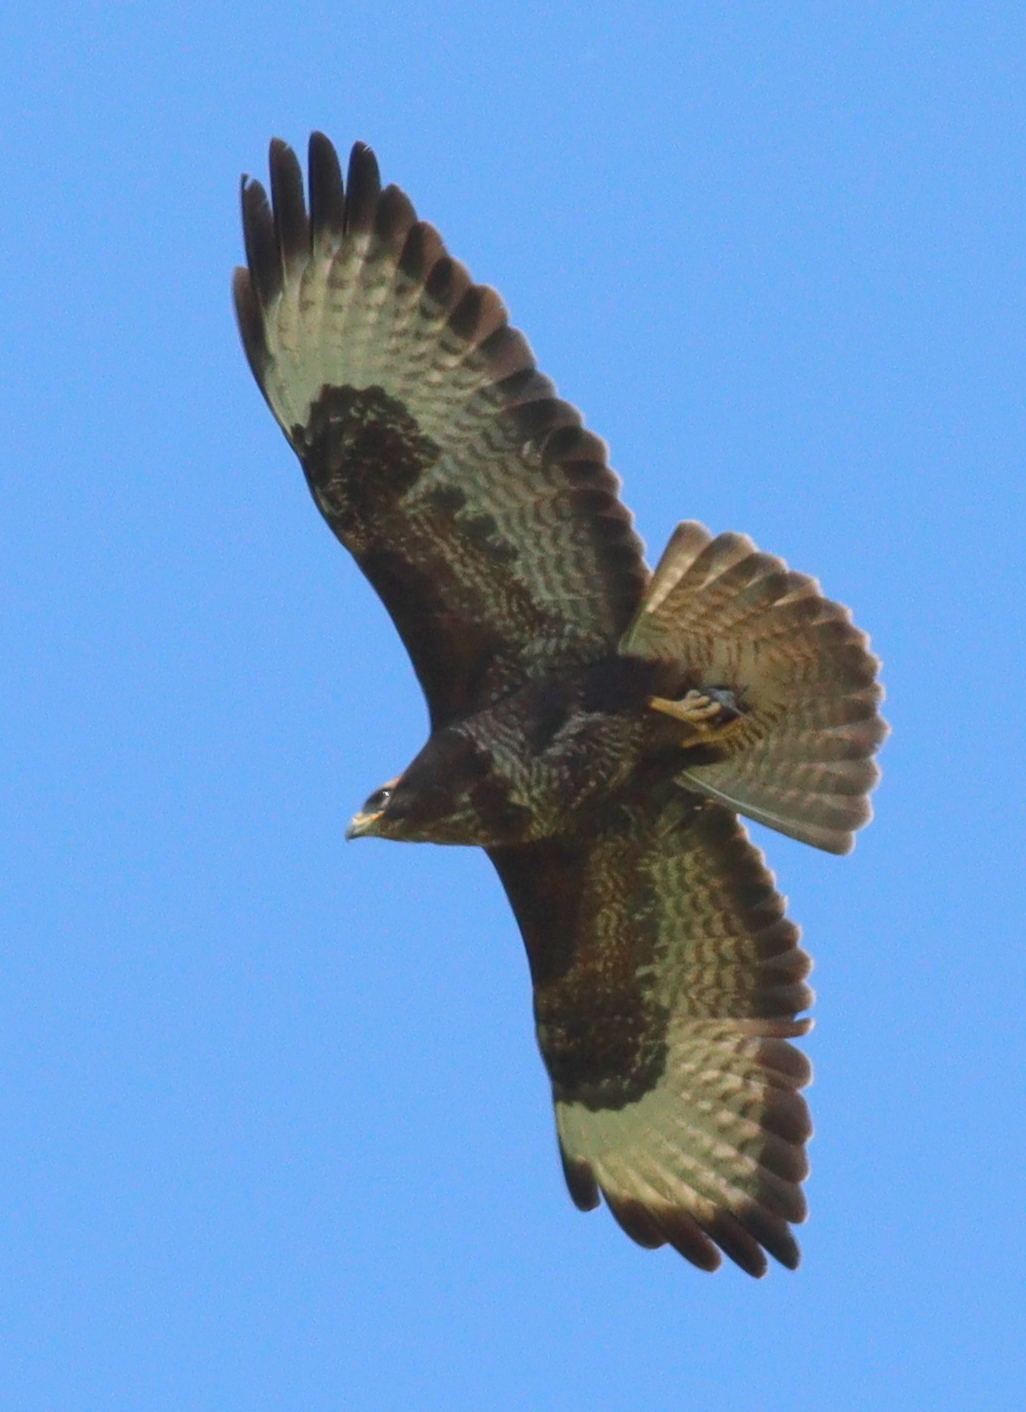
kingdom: Animalia
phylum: Chordata
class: Aves
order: Accipitriformes
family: Accipitridae
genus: Buteo
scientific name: Buteo buteo
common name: Common buzzard
